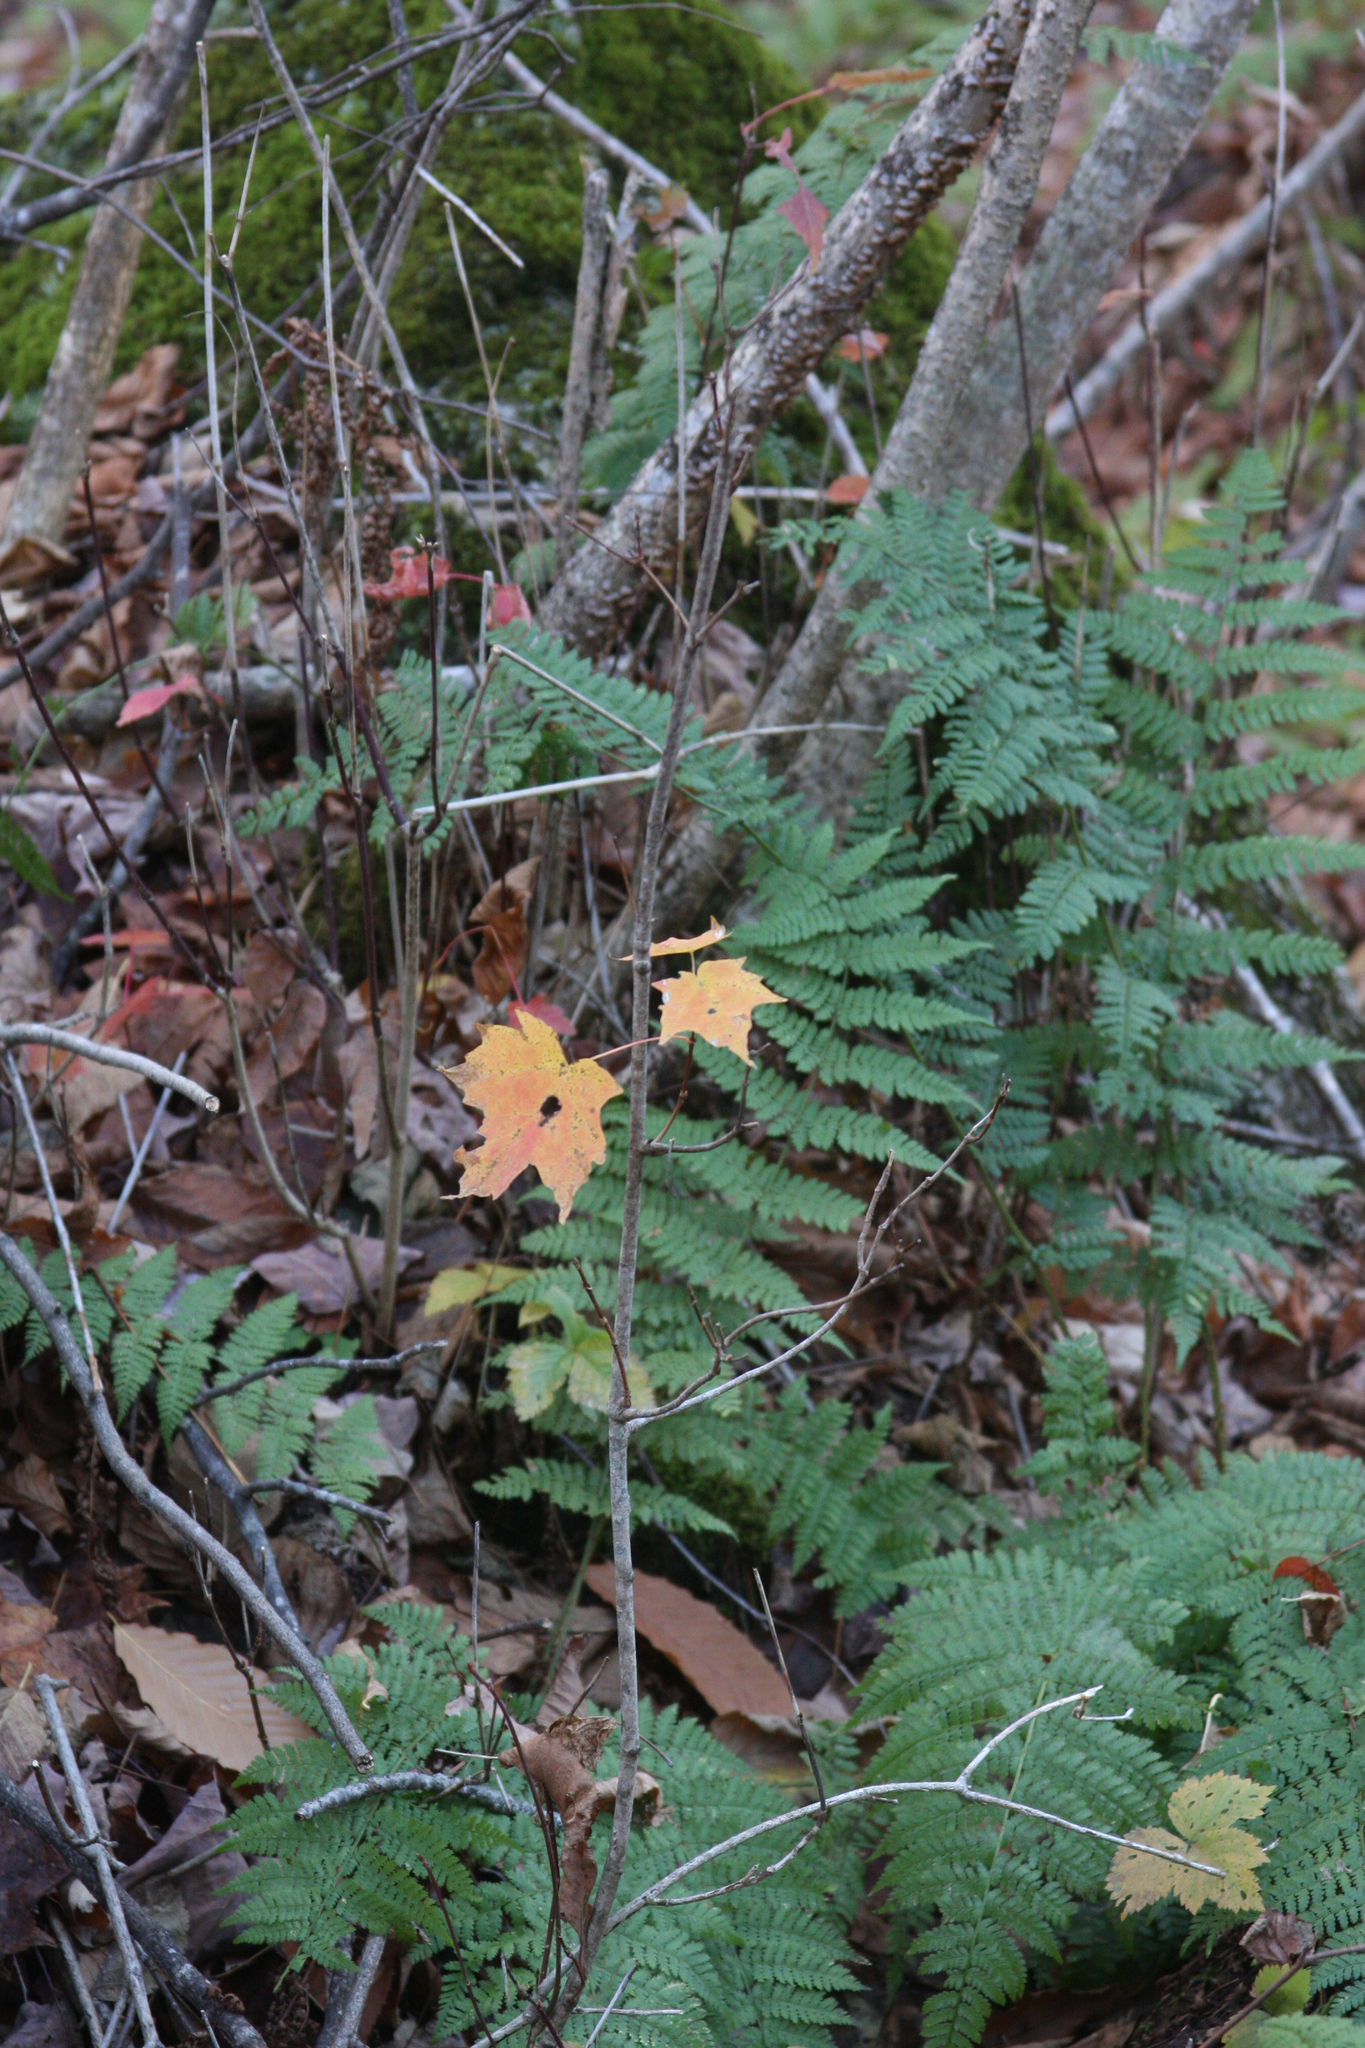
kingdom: Plantae
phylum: Tracheophyta
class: Magnoliopsida
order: Sapindales
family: Sapindaceae
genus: Acer
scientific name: Acer saccharum
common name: Sugar maple
